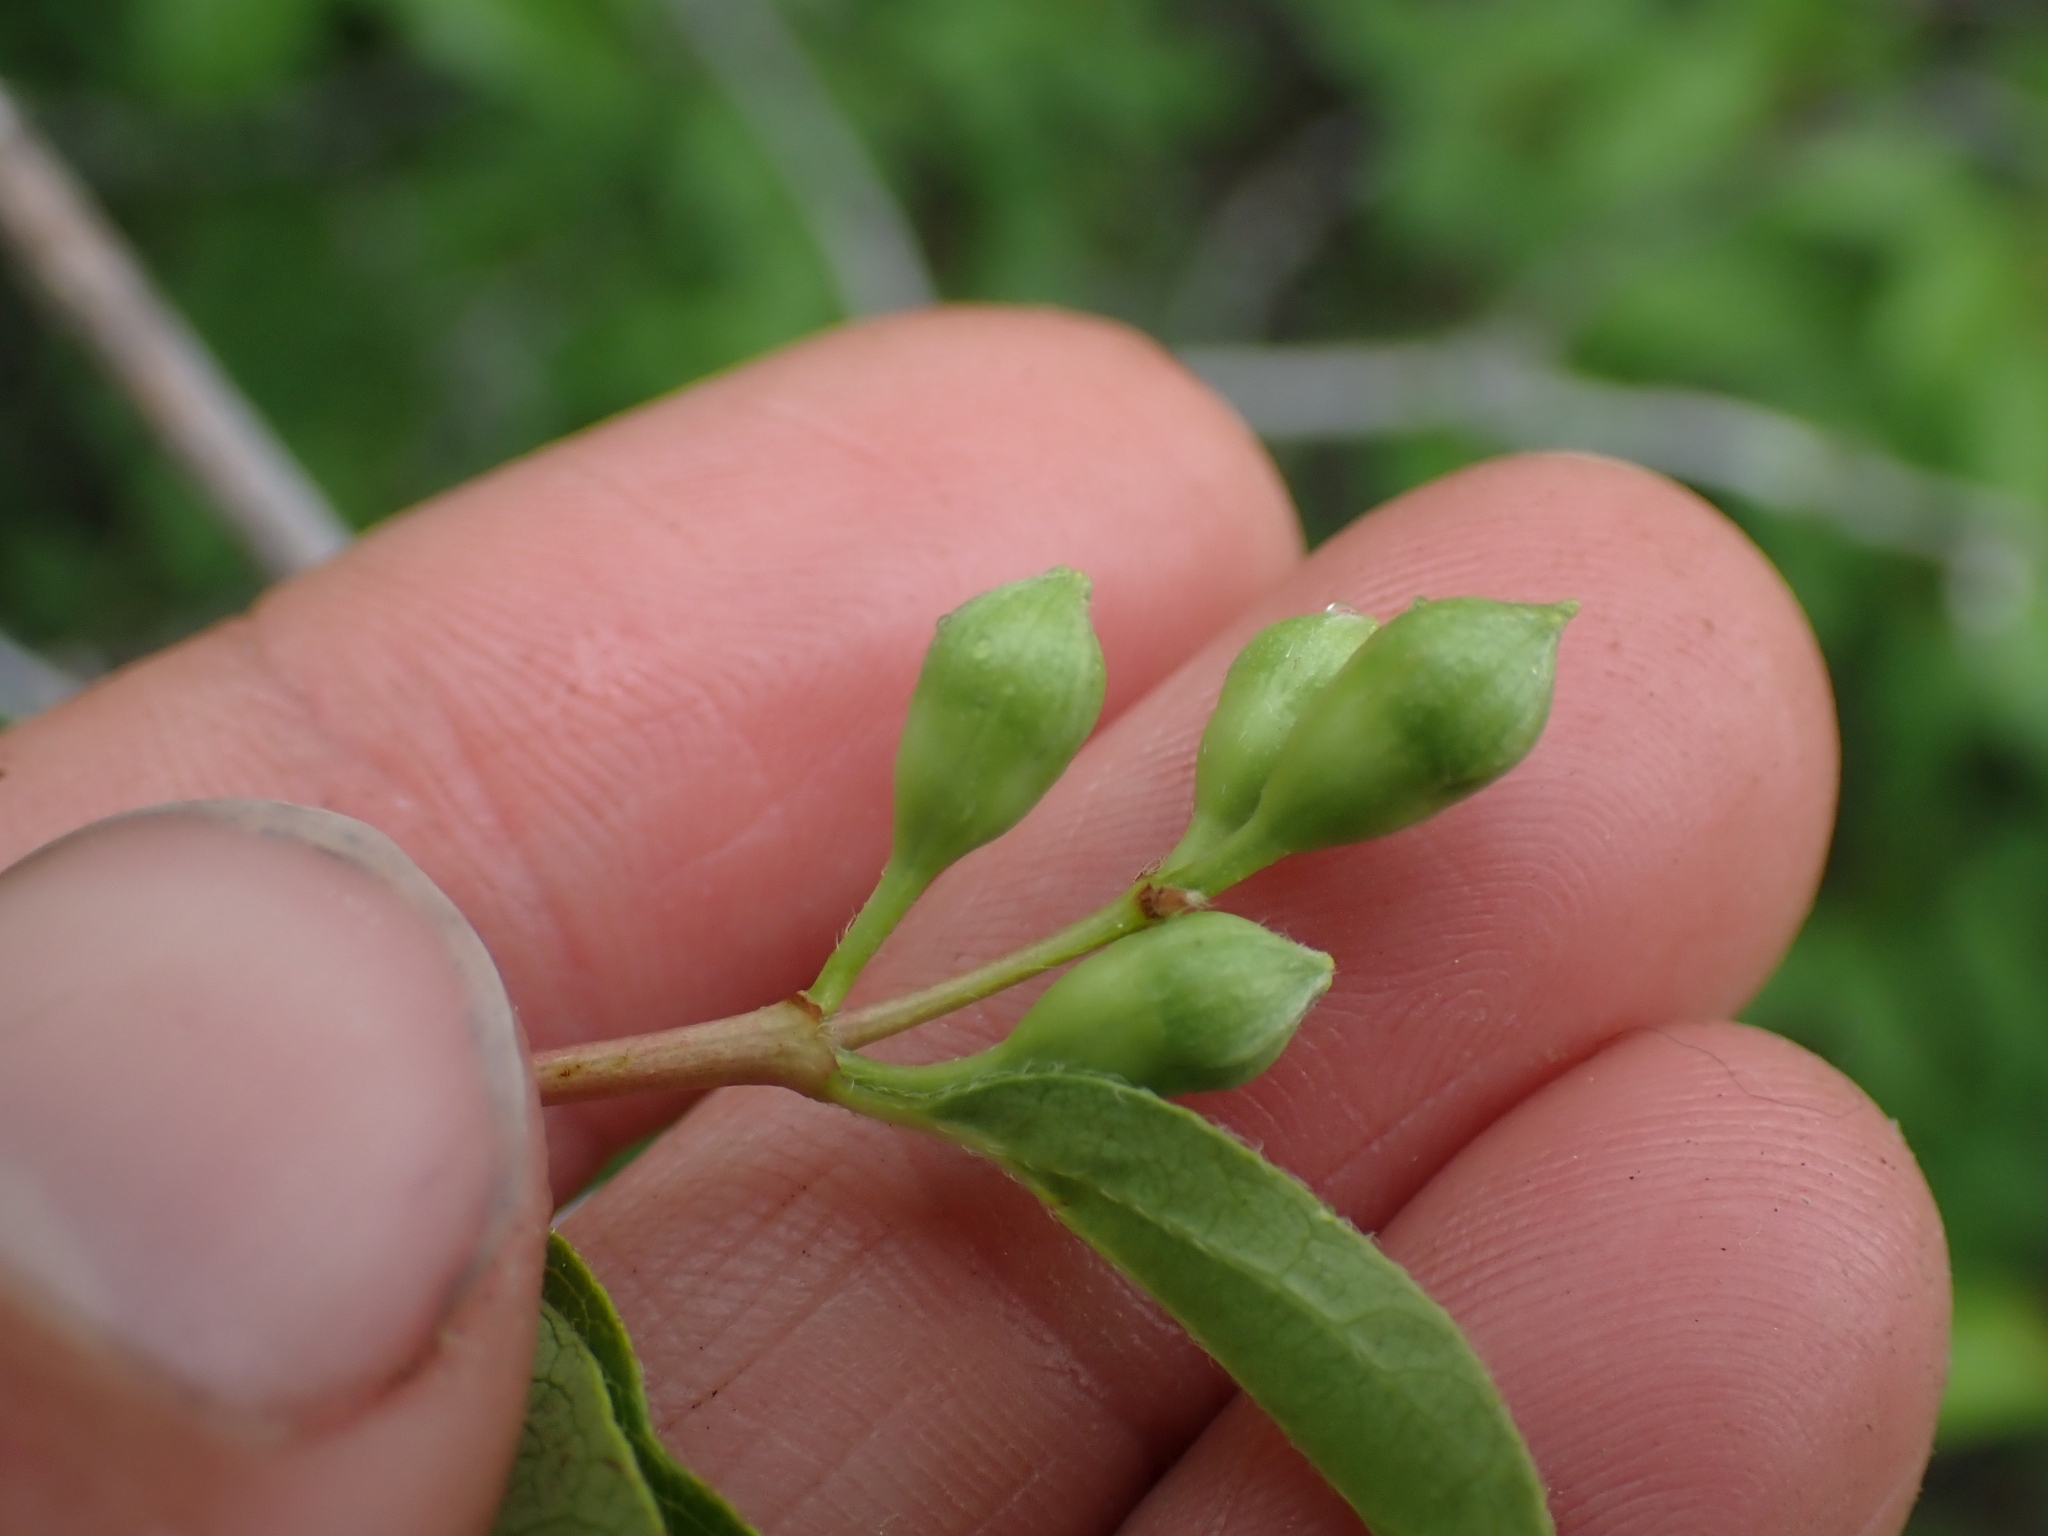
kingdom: Plantae
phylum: Tracheophyta
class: Magnoliopsida
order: Cornales
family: Hydrangeaceae
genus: Philadelphus
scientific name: Philadelphus lewisii
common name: Lewis's mock orange
